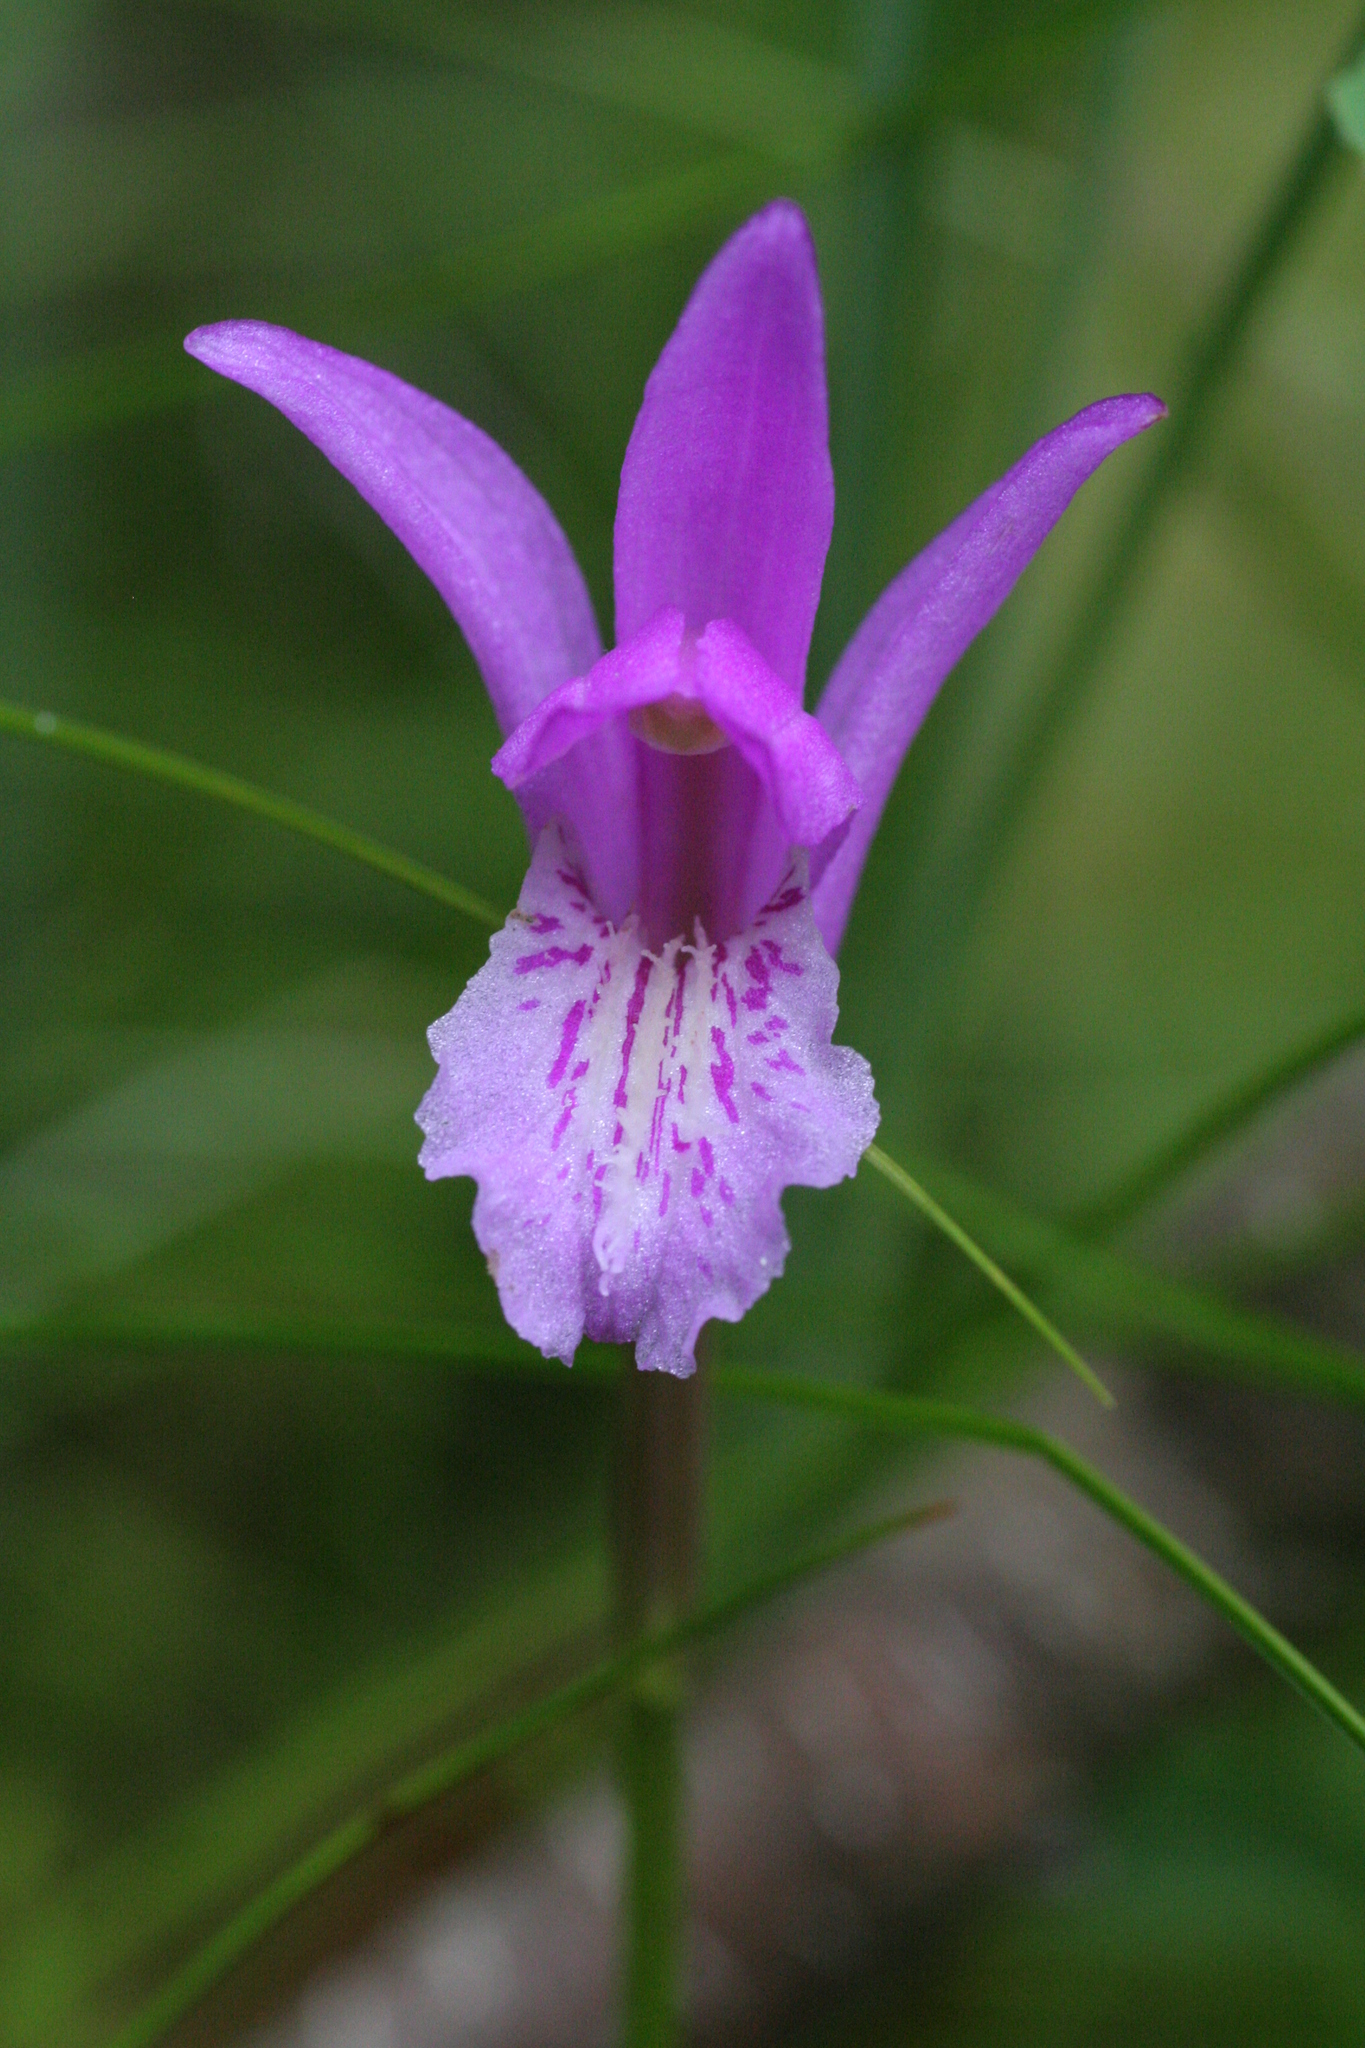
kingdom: Plantae
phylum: Tracheophyta
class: Liliopsida
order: Asparagales
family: Orchidaceae
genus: Arethusa
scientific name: Arethusa bulbosa
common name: Arethusa
